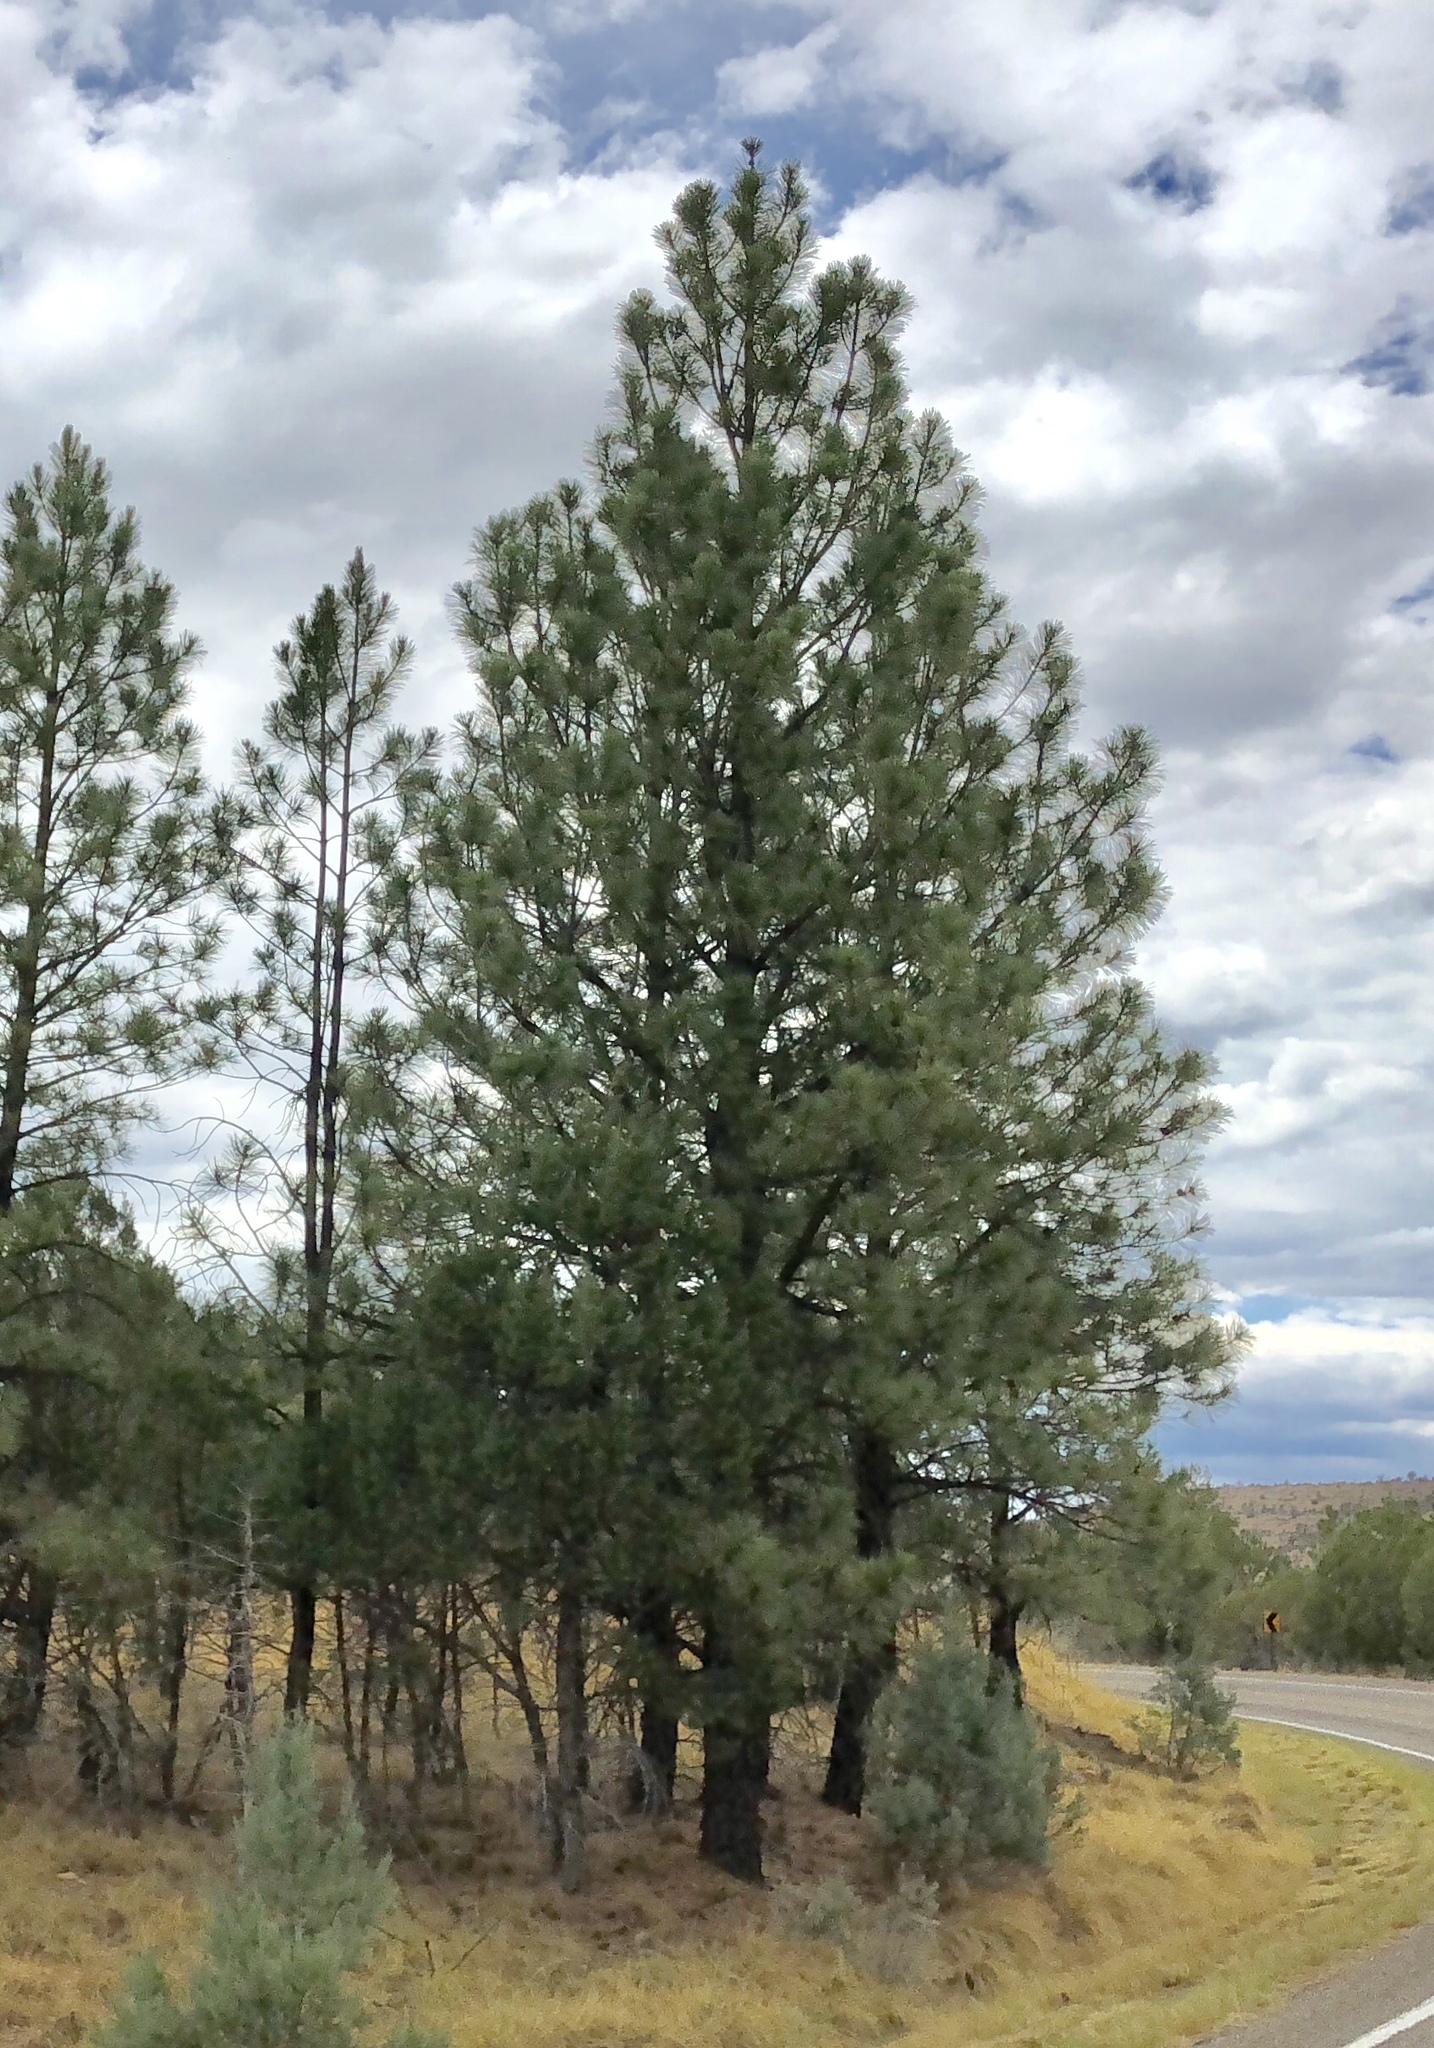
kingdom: Plantae
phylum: Tracheophyta
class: Pinopsida
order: Pinales
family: Pinaceae
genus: Pinus
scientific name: Pinus ponderosa
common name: Western yellow-pine
